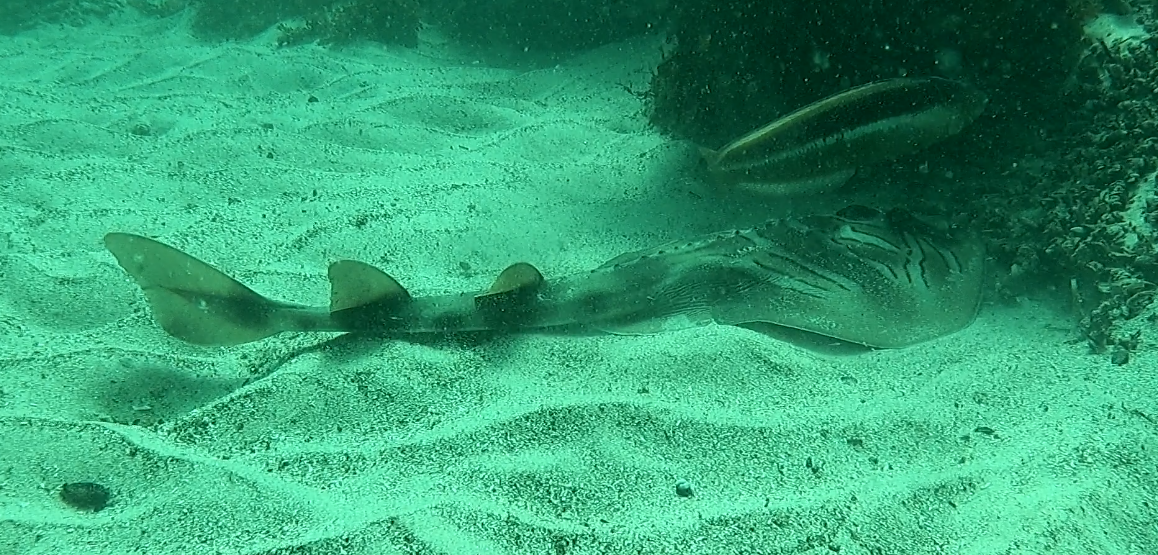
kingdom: Animalia
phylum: Chordata
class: Elasmobranchii
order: Rhinopristiformes
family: Rhinobatidae
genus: Trygonorrhina
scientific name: Trygonorrhina fasciata
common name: Southern fiddler
